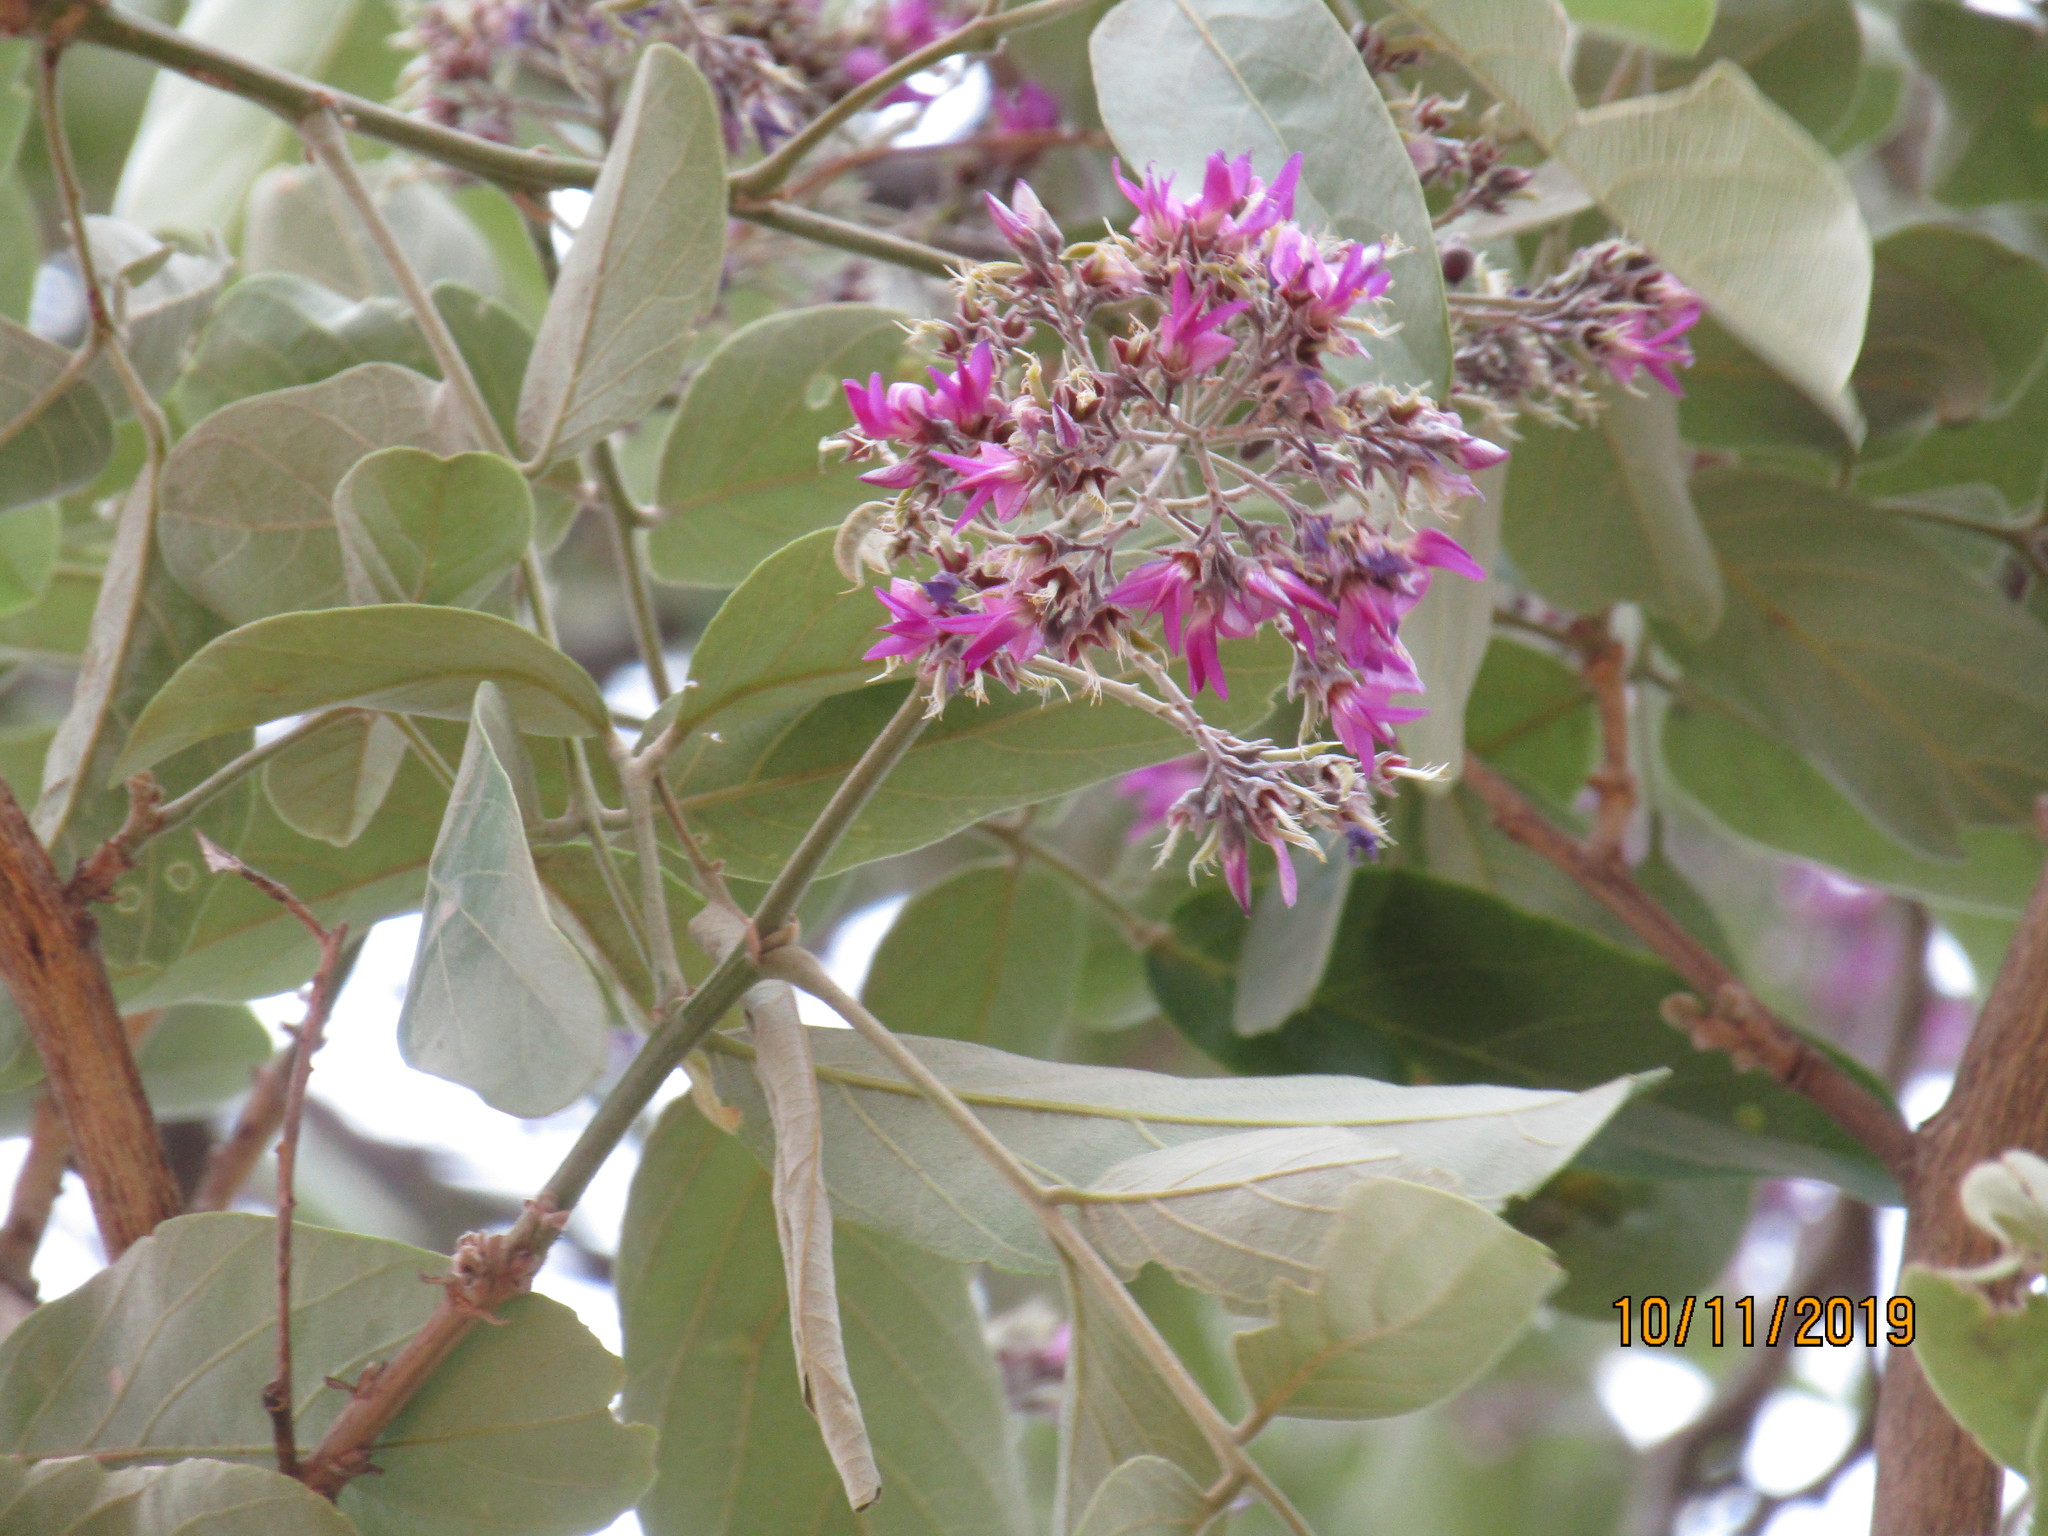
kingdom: Plantae
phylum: Tracheophyta
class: Magnoliopsida
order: Fabales
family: Fabaceae
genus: Philenoptera
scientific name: Philenoptera violacea
